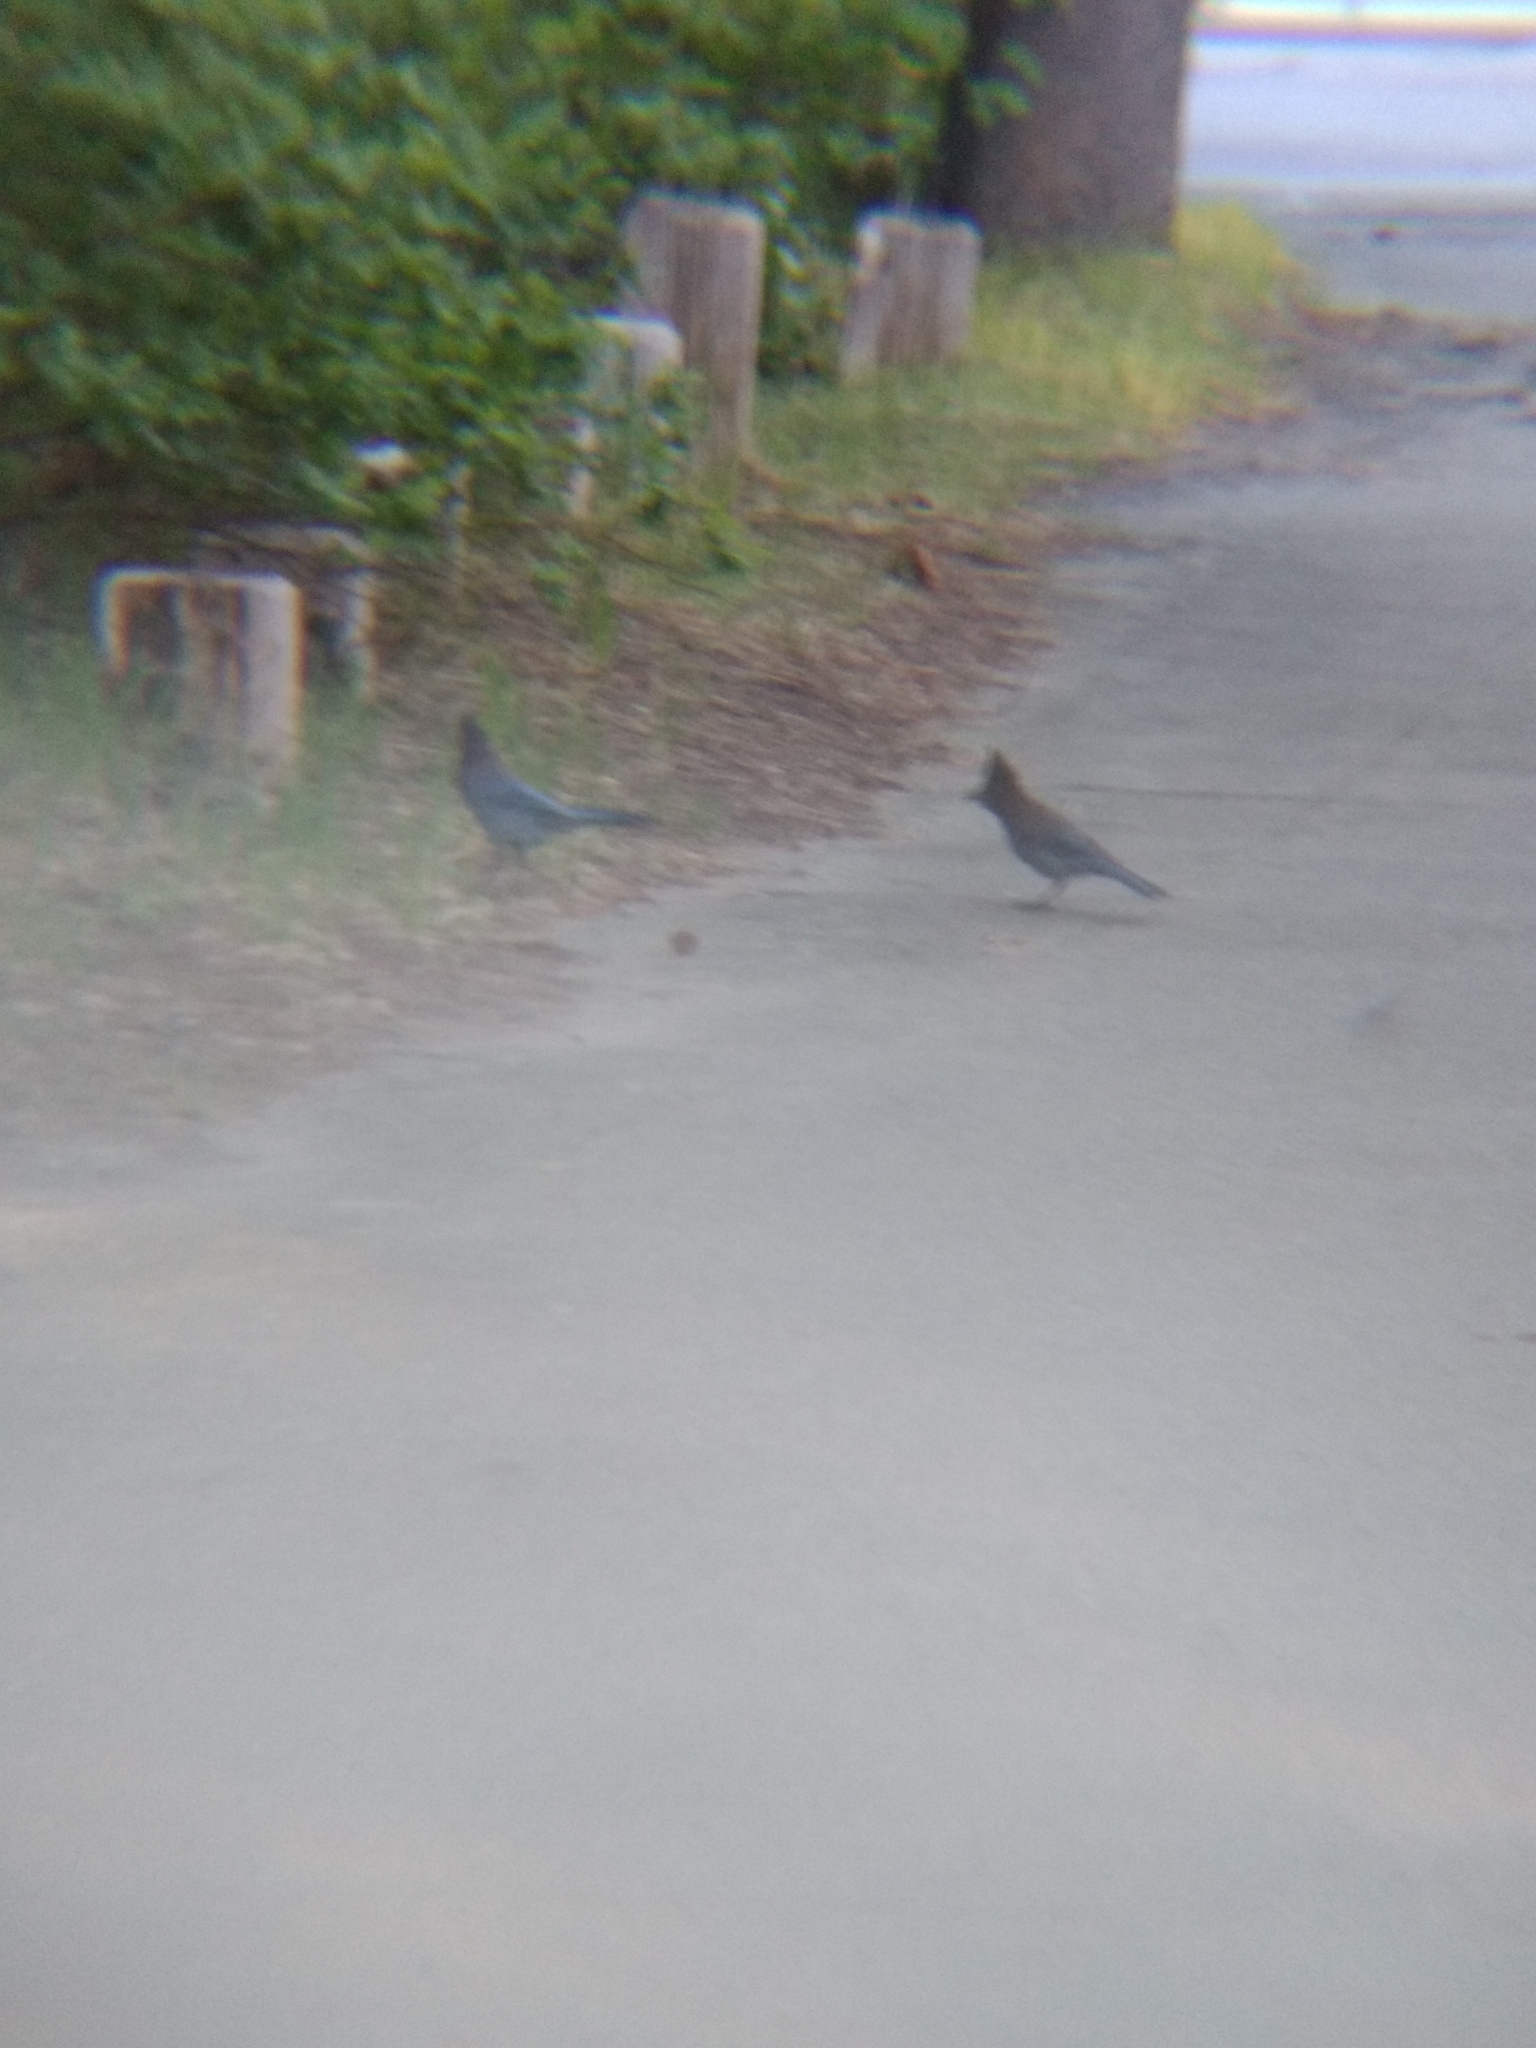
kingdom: Animalia
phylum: Chordata
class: Aves
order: Passeriformes
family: Corvidae
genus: Cyanocitta
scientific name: Cyanocitta stelleri
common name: Steller's jay
